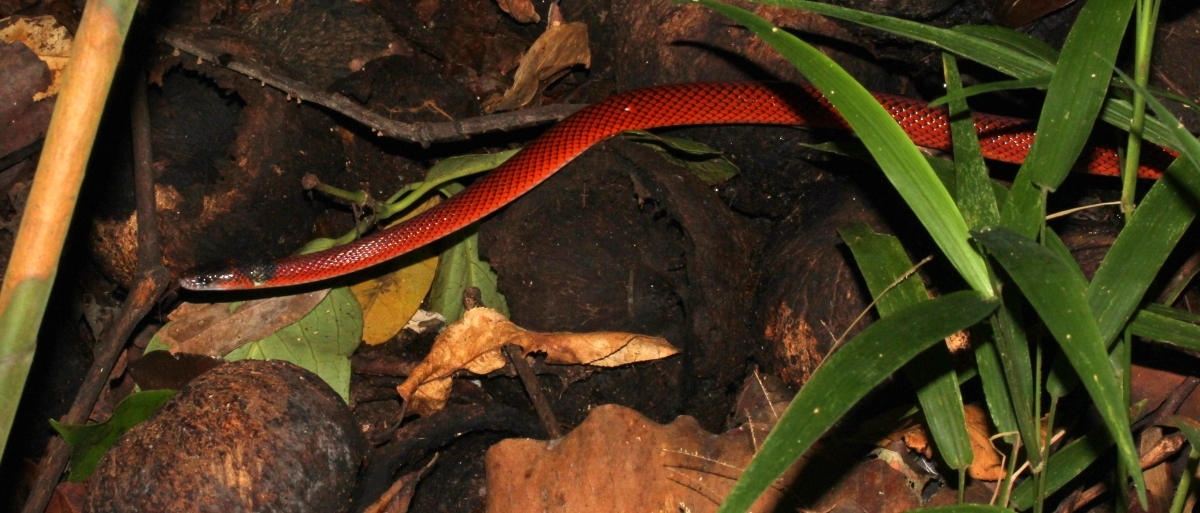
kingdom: Animalia
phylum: Chordata
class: Squamata
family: Colubridae
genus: Oxyrhopus
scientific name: Oxyrhopus melanogenys
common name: Tschudi's false coral snake
